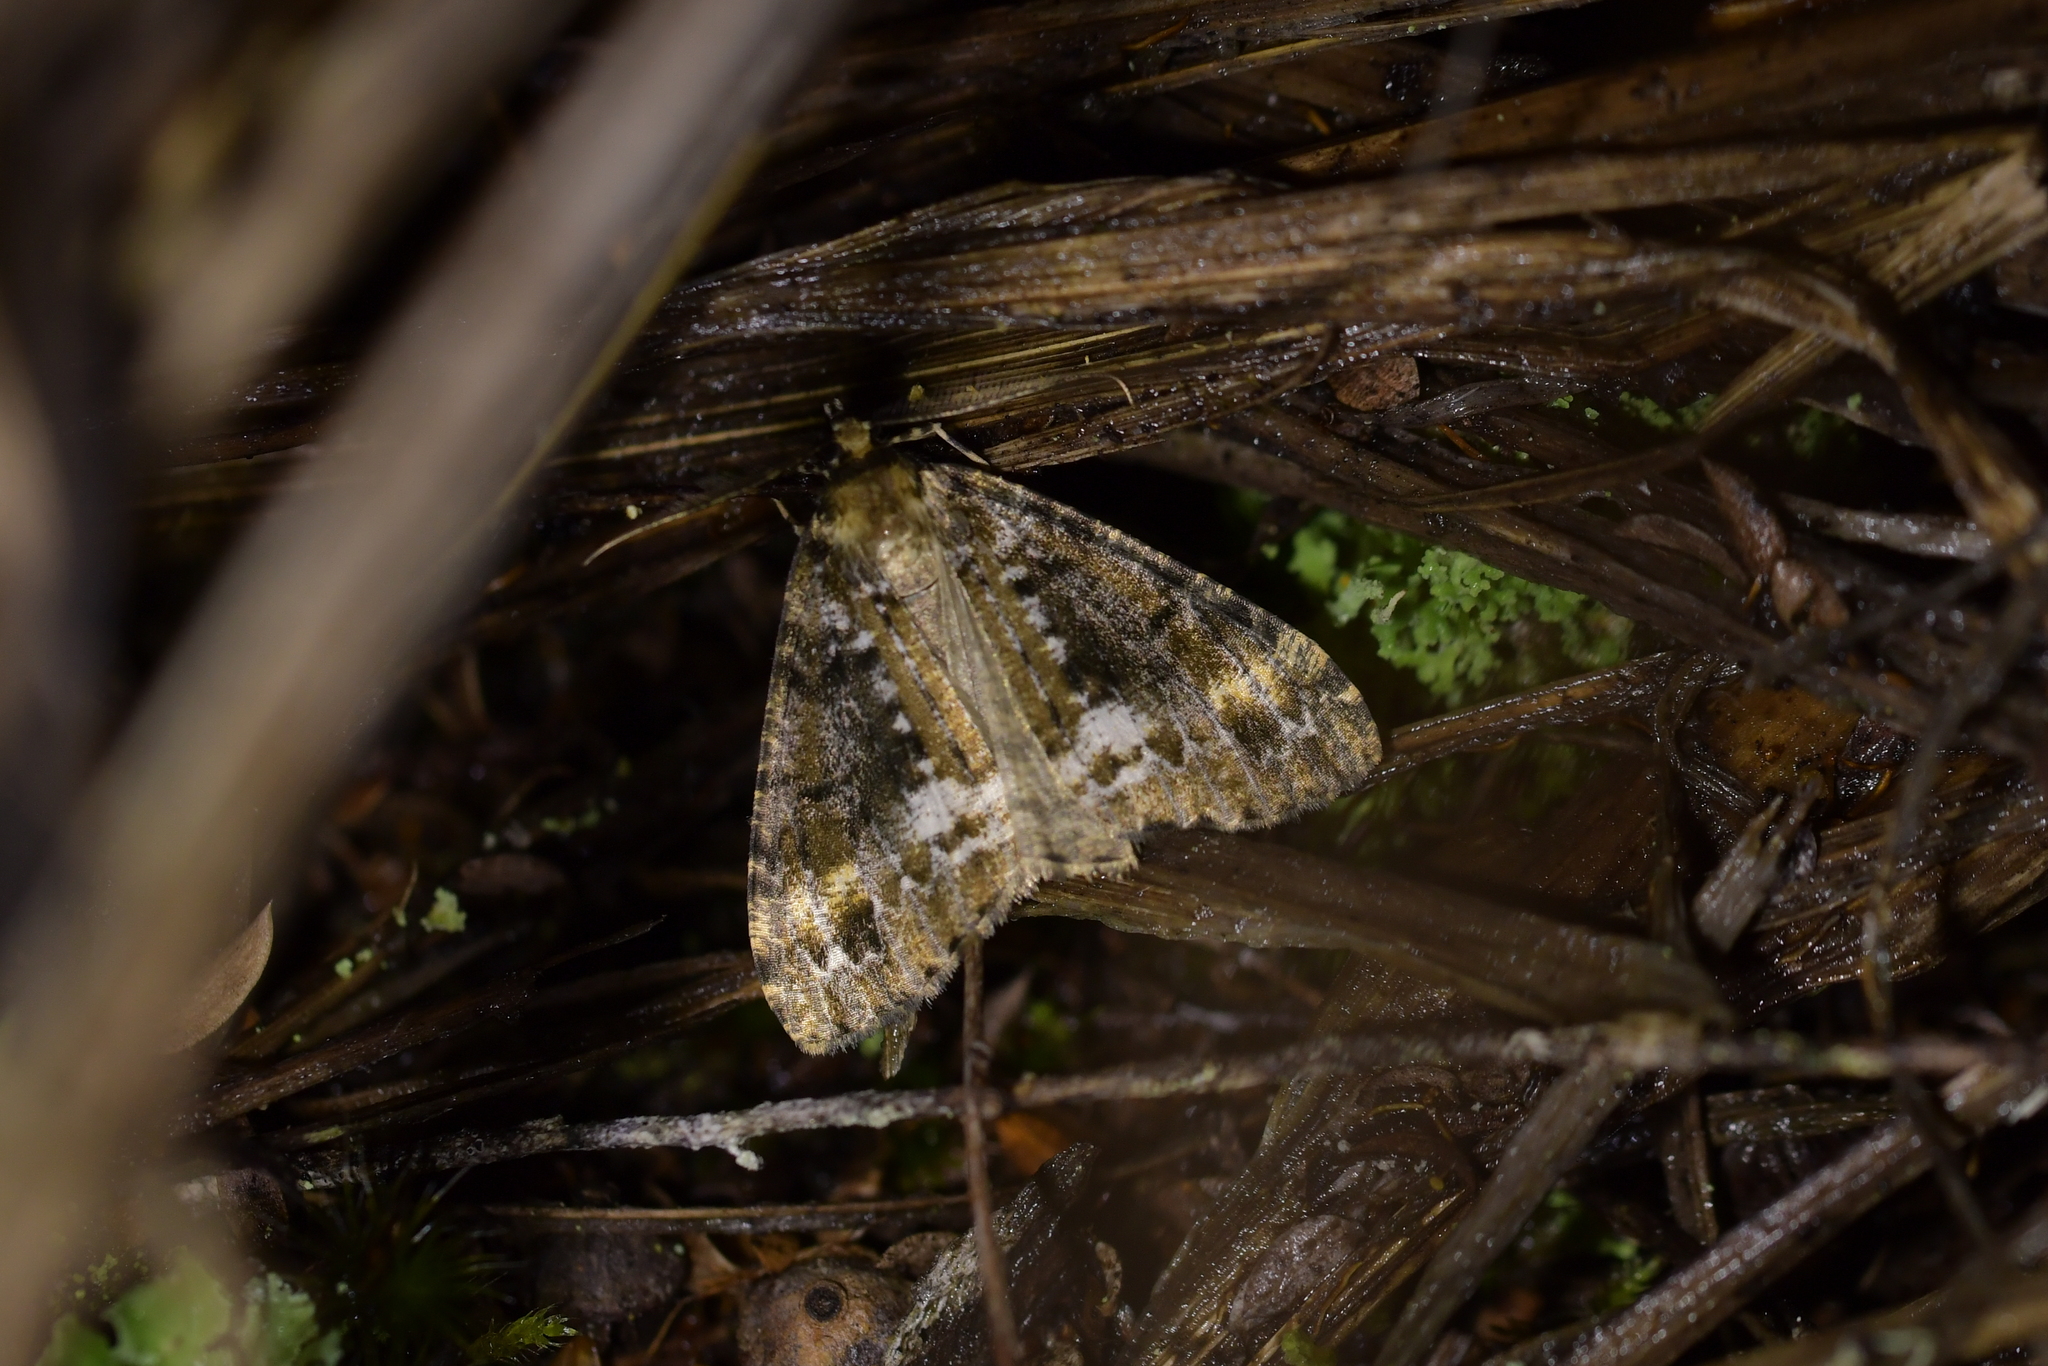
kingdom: Animalia
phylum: Arthropoda
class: Insecta
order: Lepidoptera
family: Geometridae
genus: Pseudocoremia
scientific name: Pseudocoremia leucelaea
